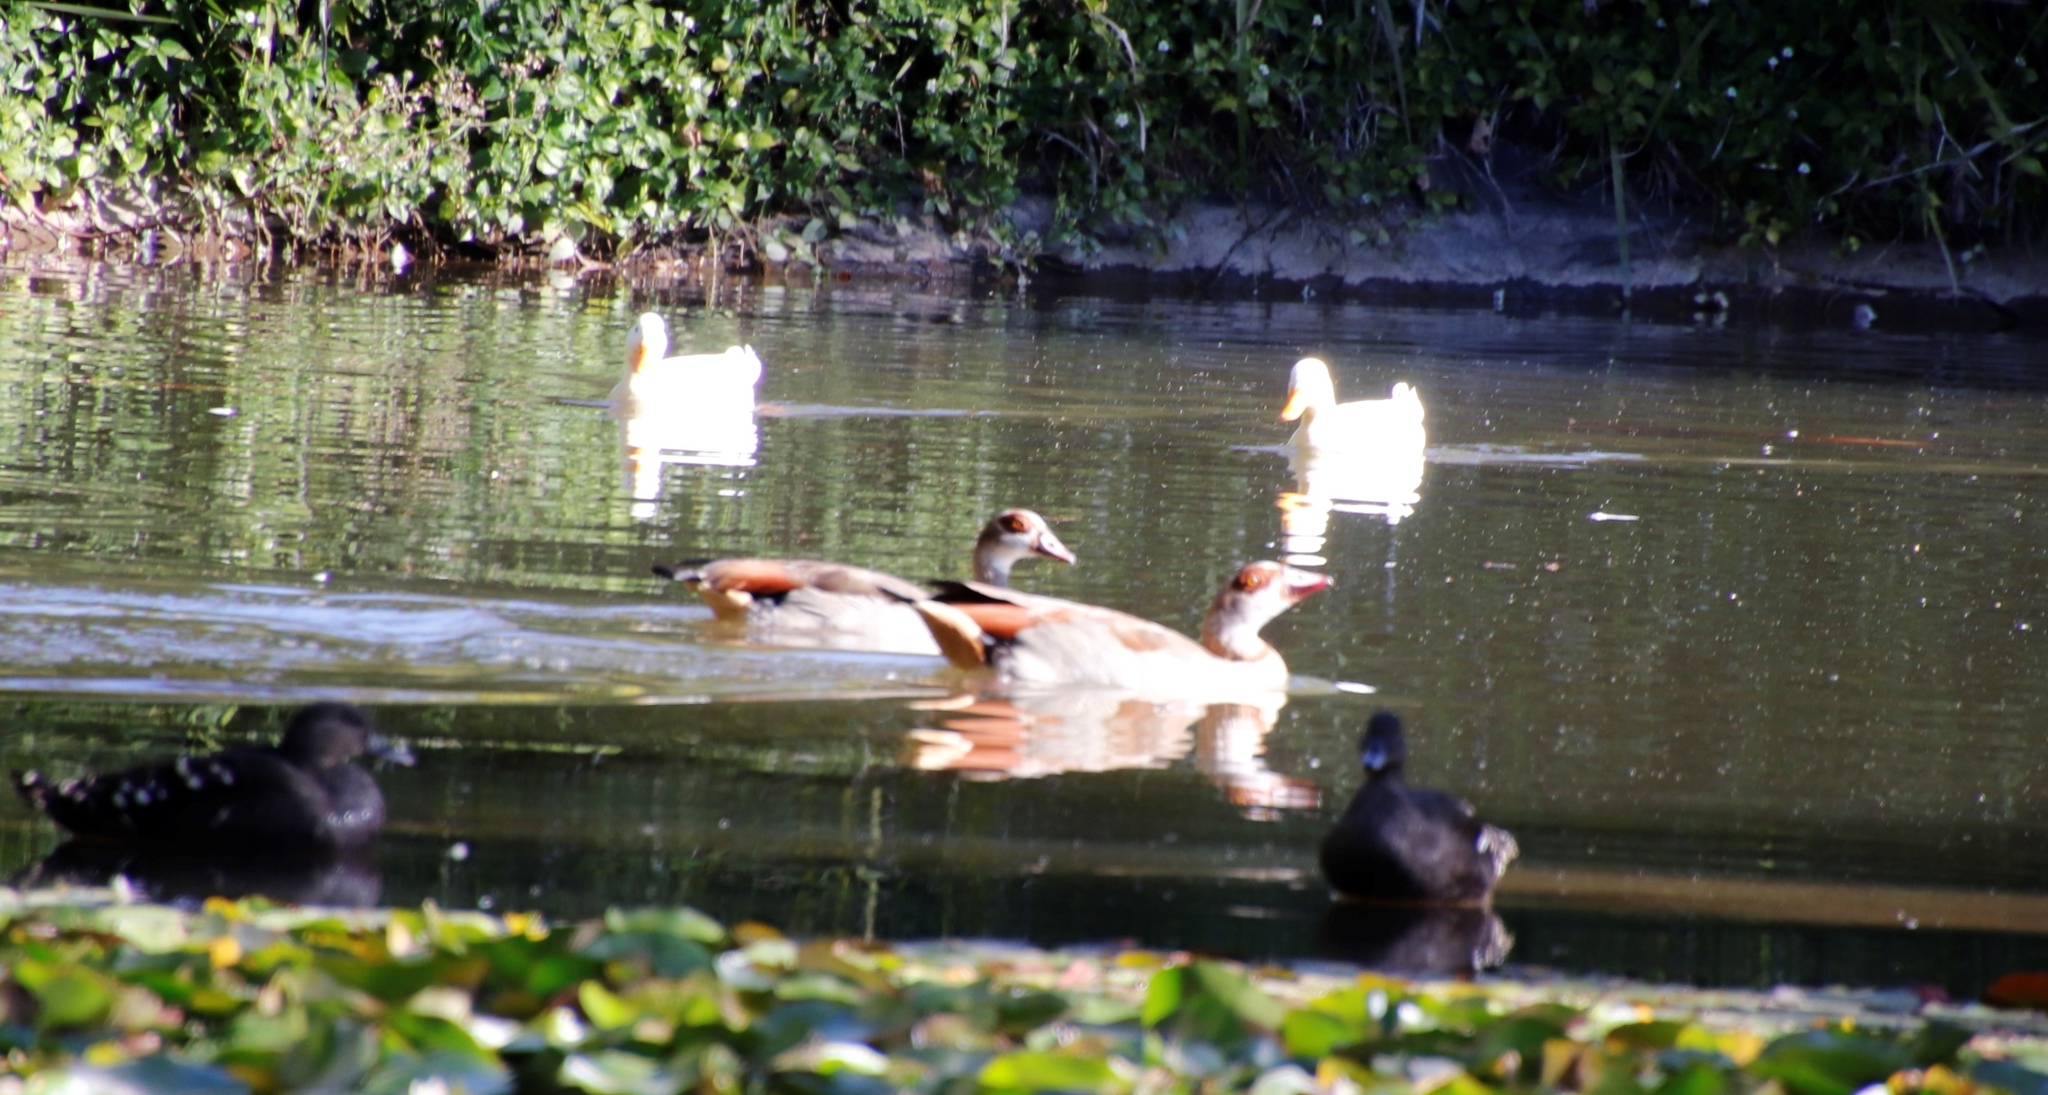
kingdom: Animalia
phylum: Chordata
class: Aves
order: Anseriformes
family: Anatidae
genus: Alopochen
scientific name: Alopochen aegyptiaca
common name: Egyptian goose
